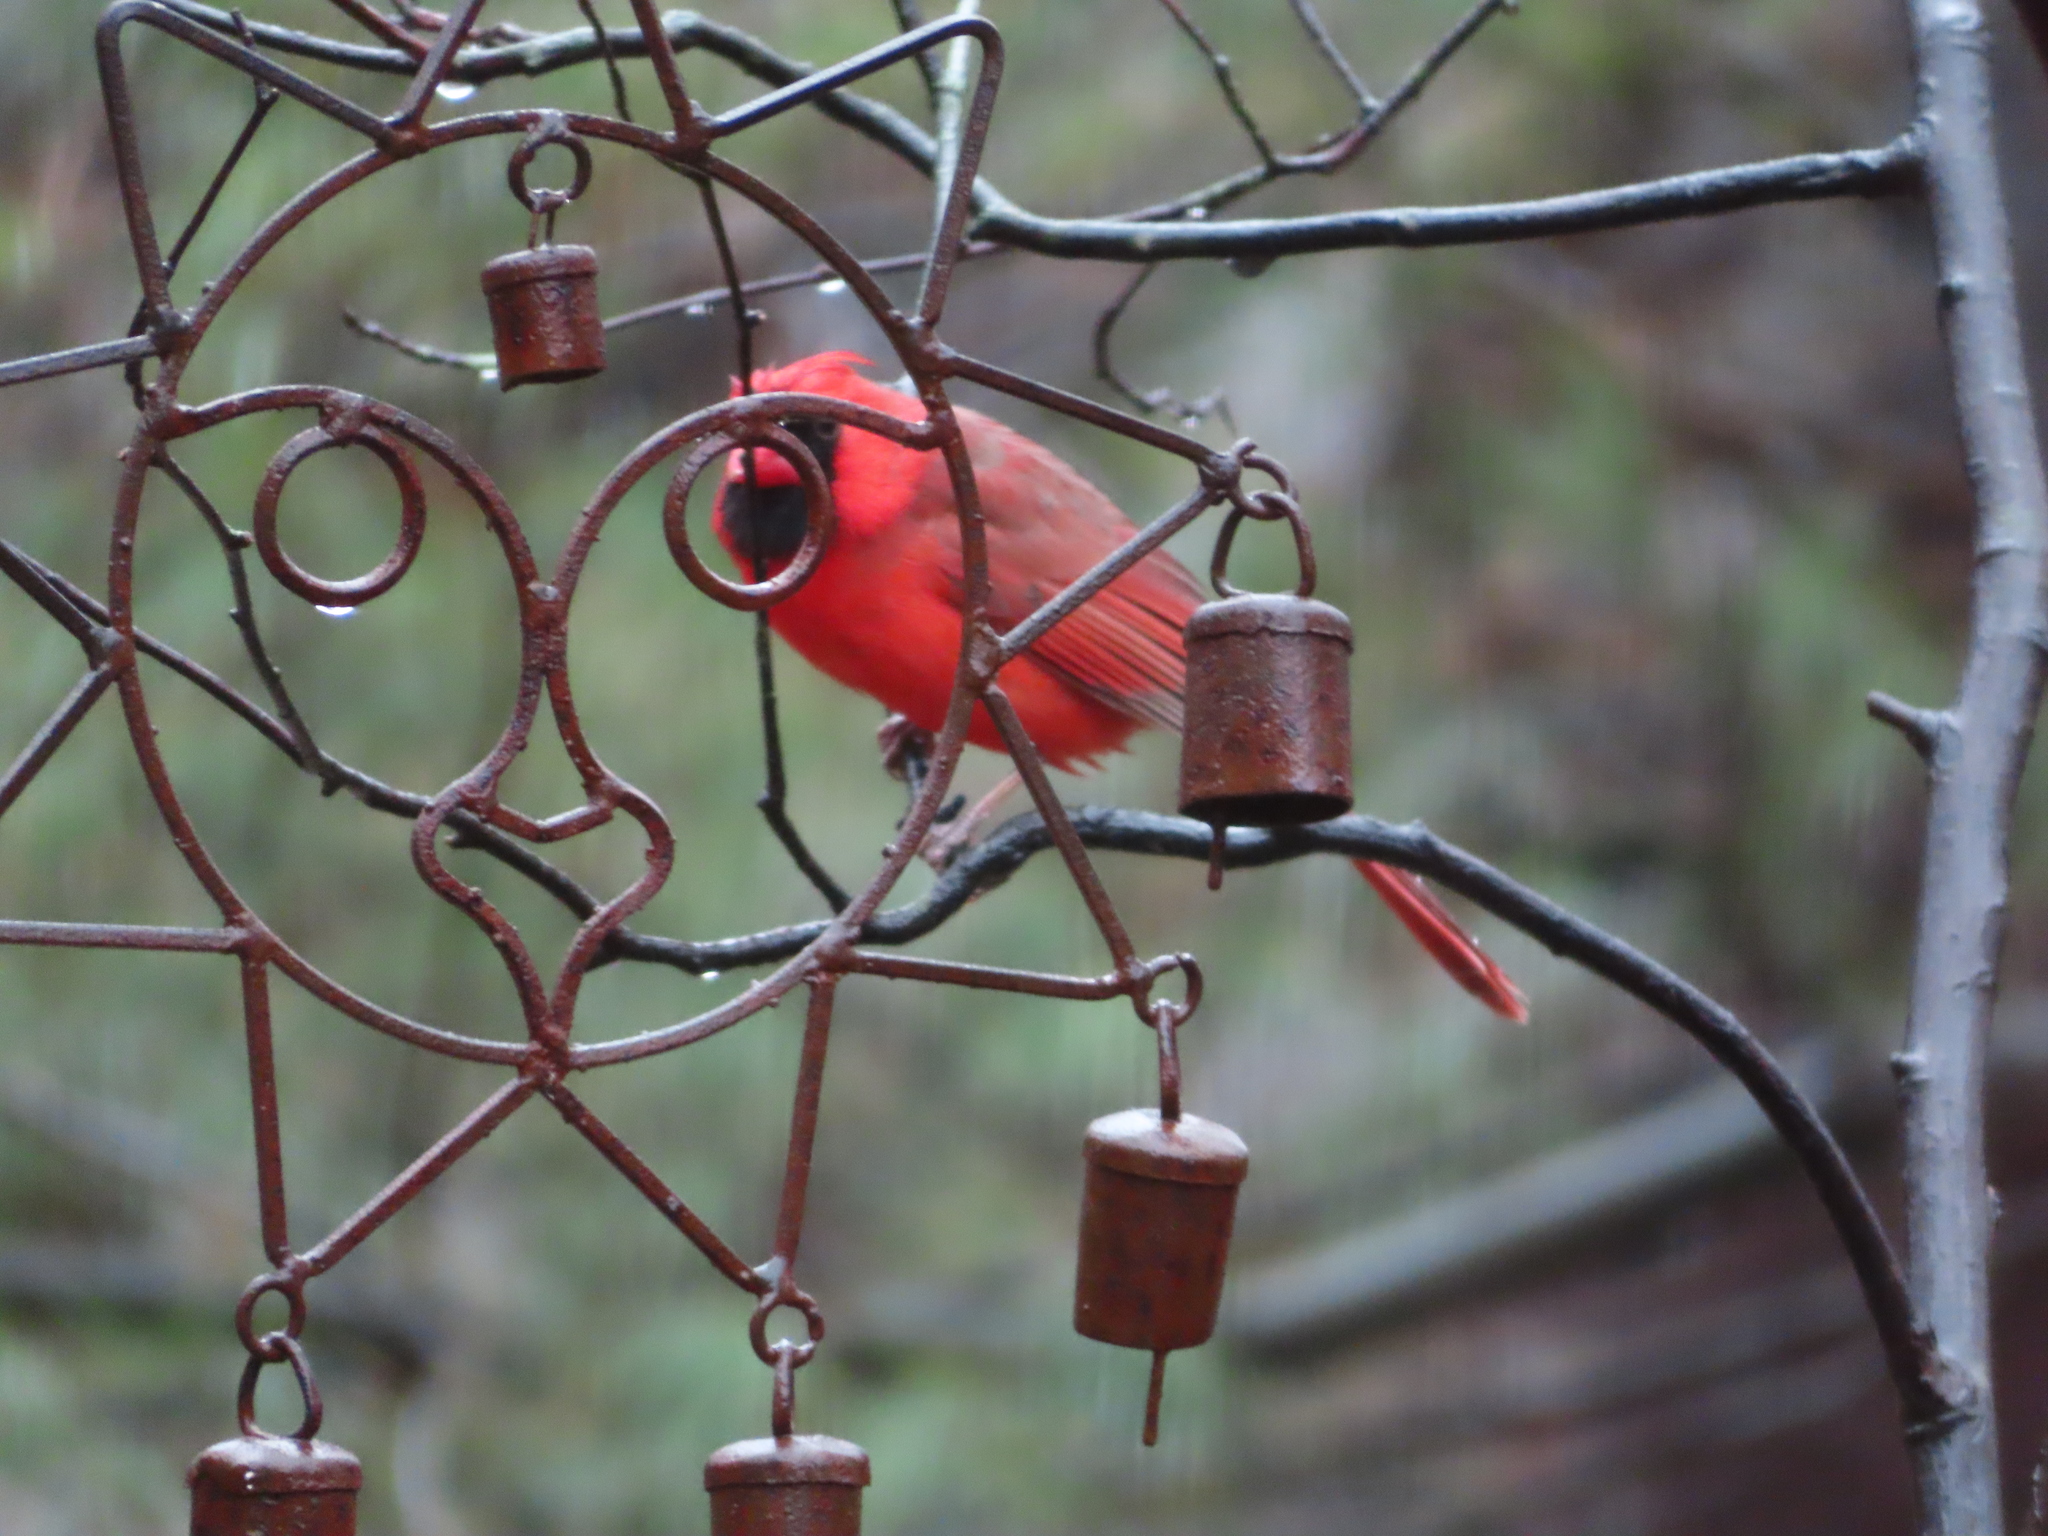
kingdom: Animalia
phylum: Chordata
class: Aves
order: Passeriformes
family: Cardinalidae
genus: Cardinalis
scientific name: Cardinalis cardinalis
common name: Northern cardinal
